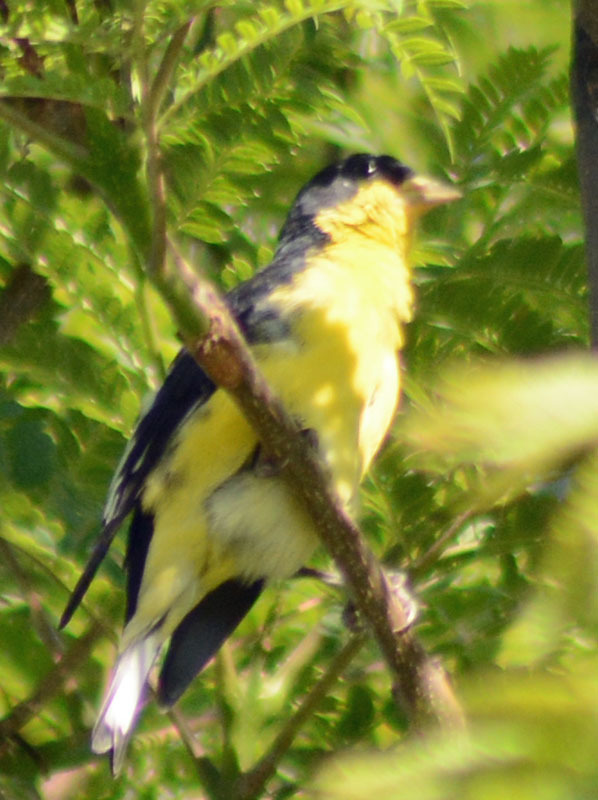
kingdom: Animalia
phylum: Chordata
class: Aves
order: Passeriformes
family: Fringillidae
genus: Spinus
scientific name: Spinus psaltria
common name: Lesser goldfinch
